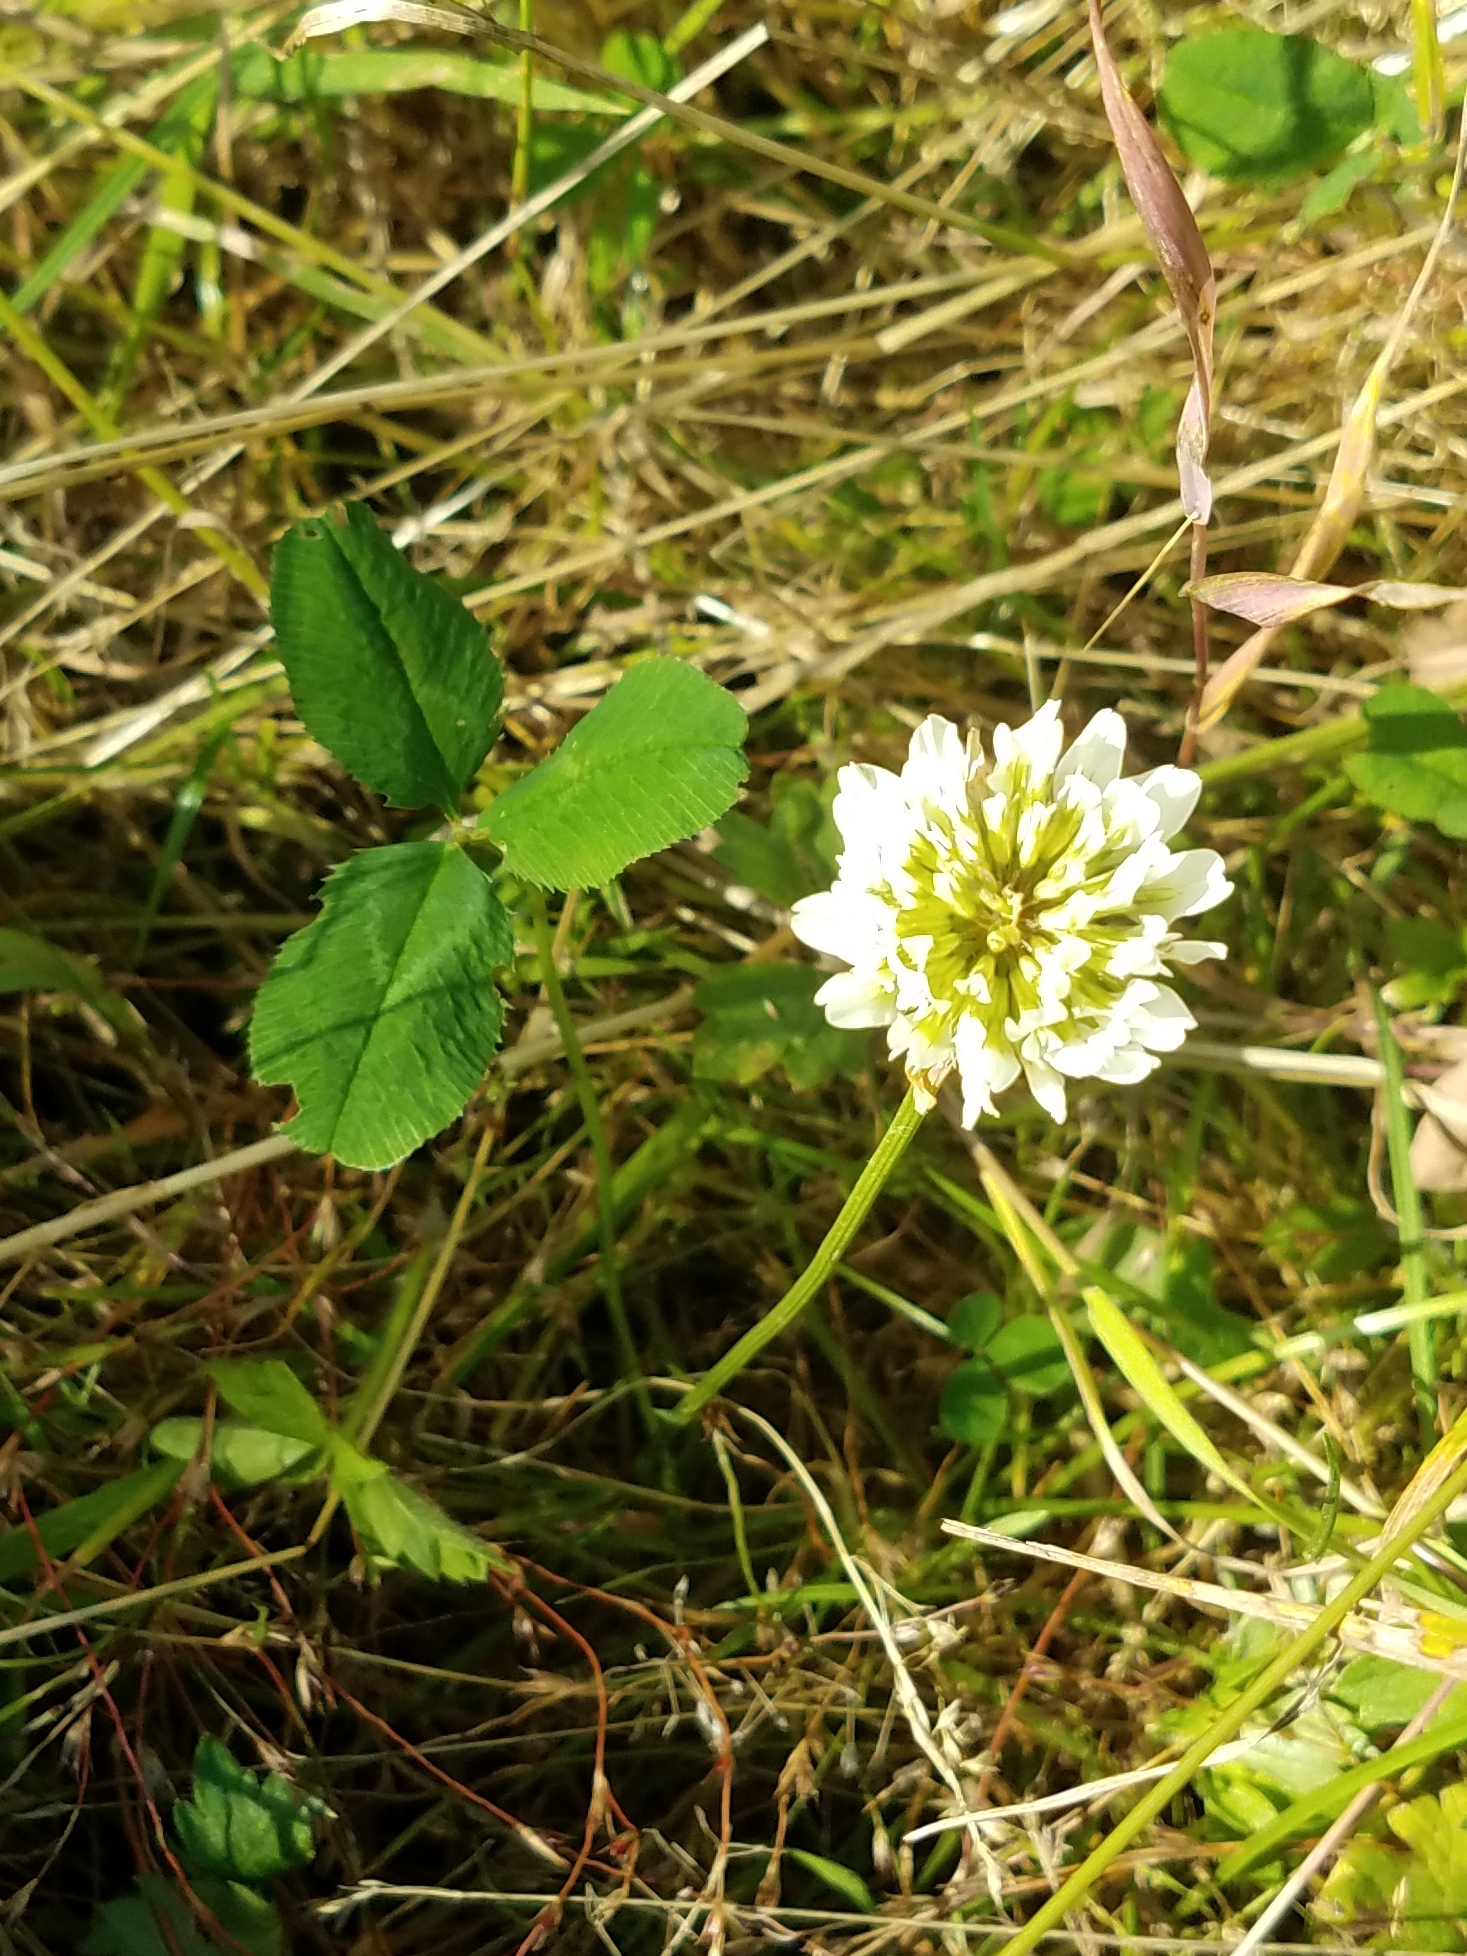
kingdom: Plantae
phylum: Tracheophyta
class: Magnoliopsida
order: Fabales
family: Fabaceae
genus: Trifolium
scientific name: Trifolium repens
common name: White clover
